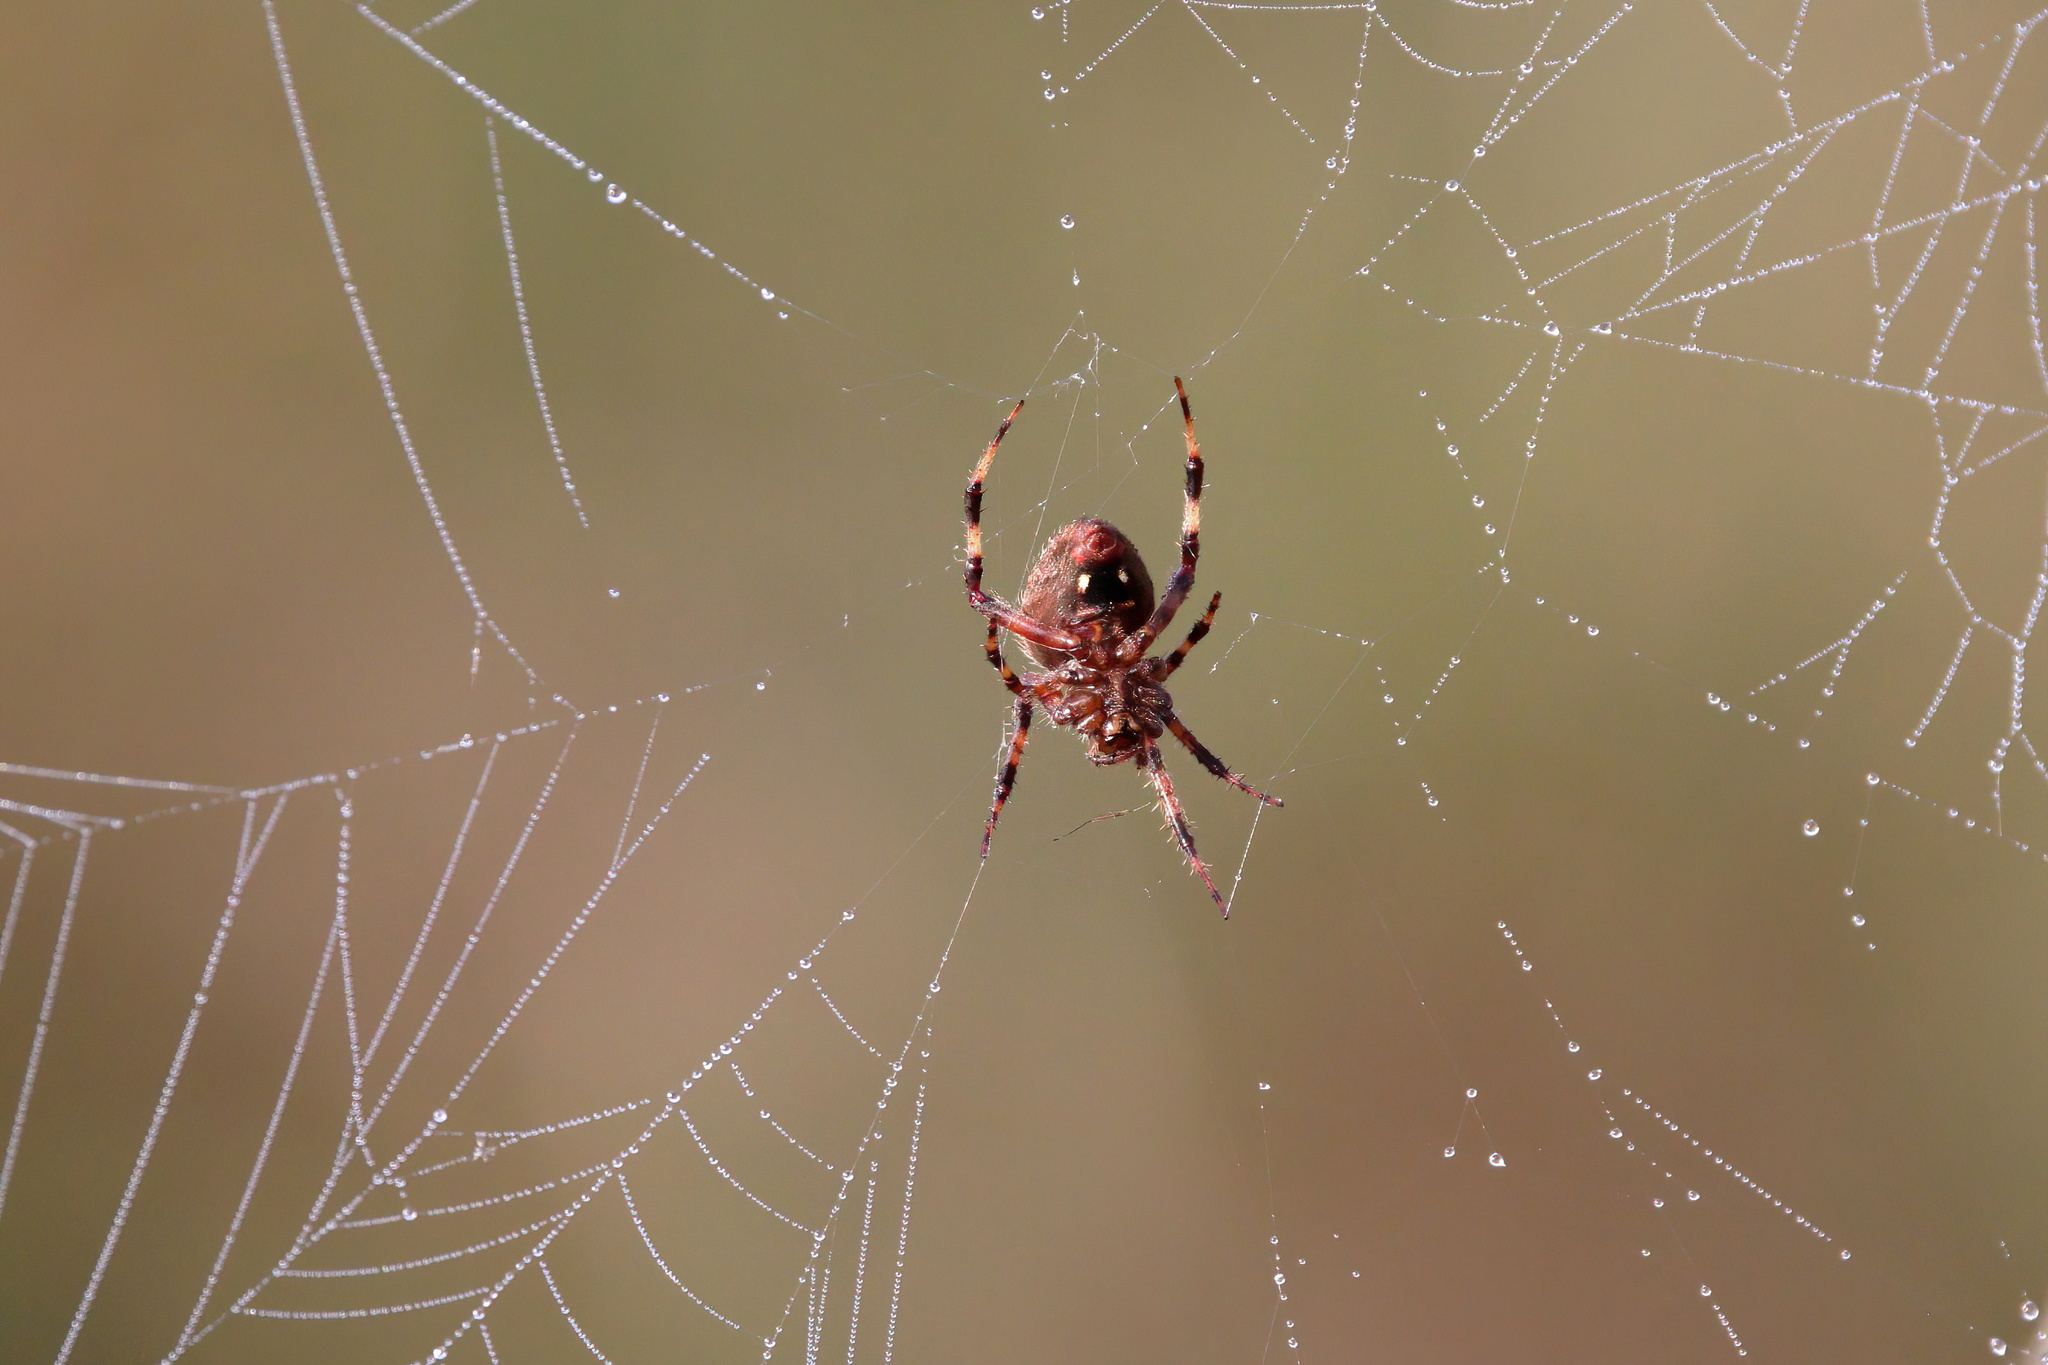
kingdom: Animalia
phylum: Arthropoda
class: Arachnida
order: Araneae
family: Araneidae
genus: Neoscona
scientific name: Neoscona crucifera
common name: Spotted orbweaver
